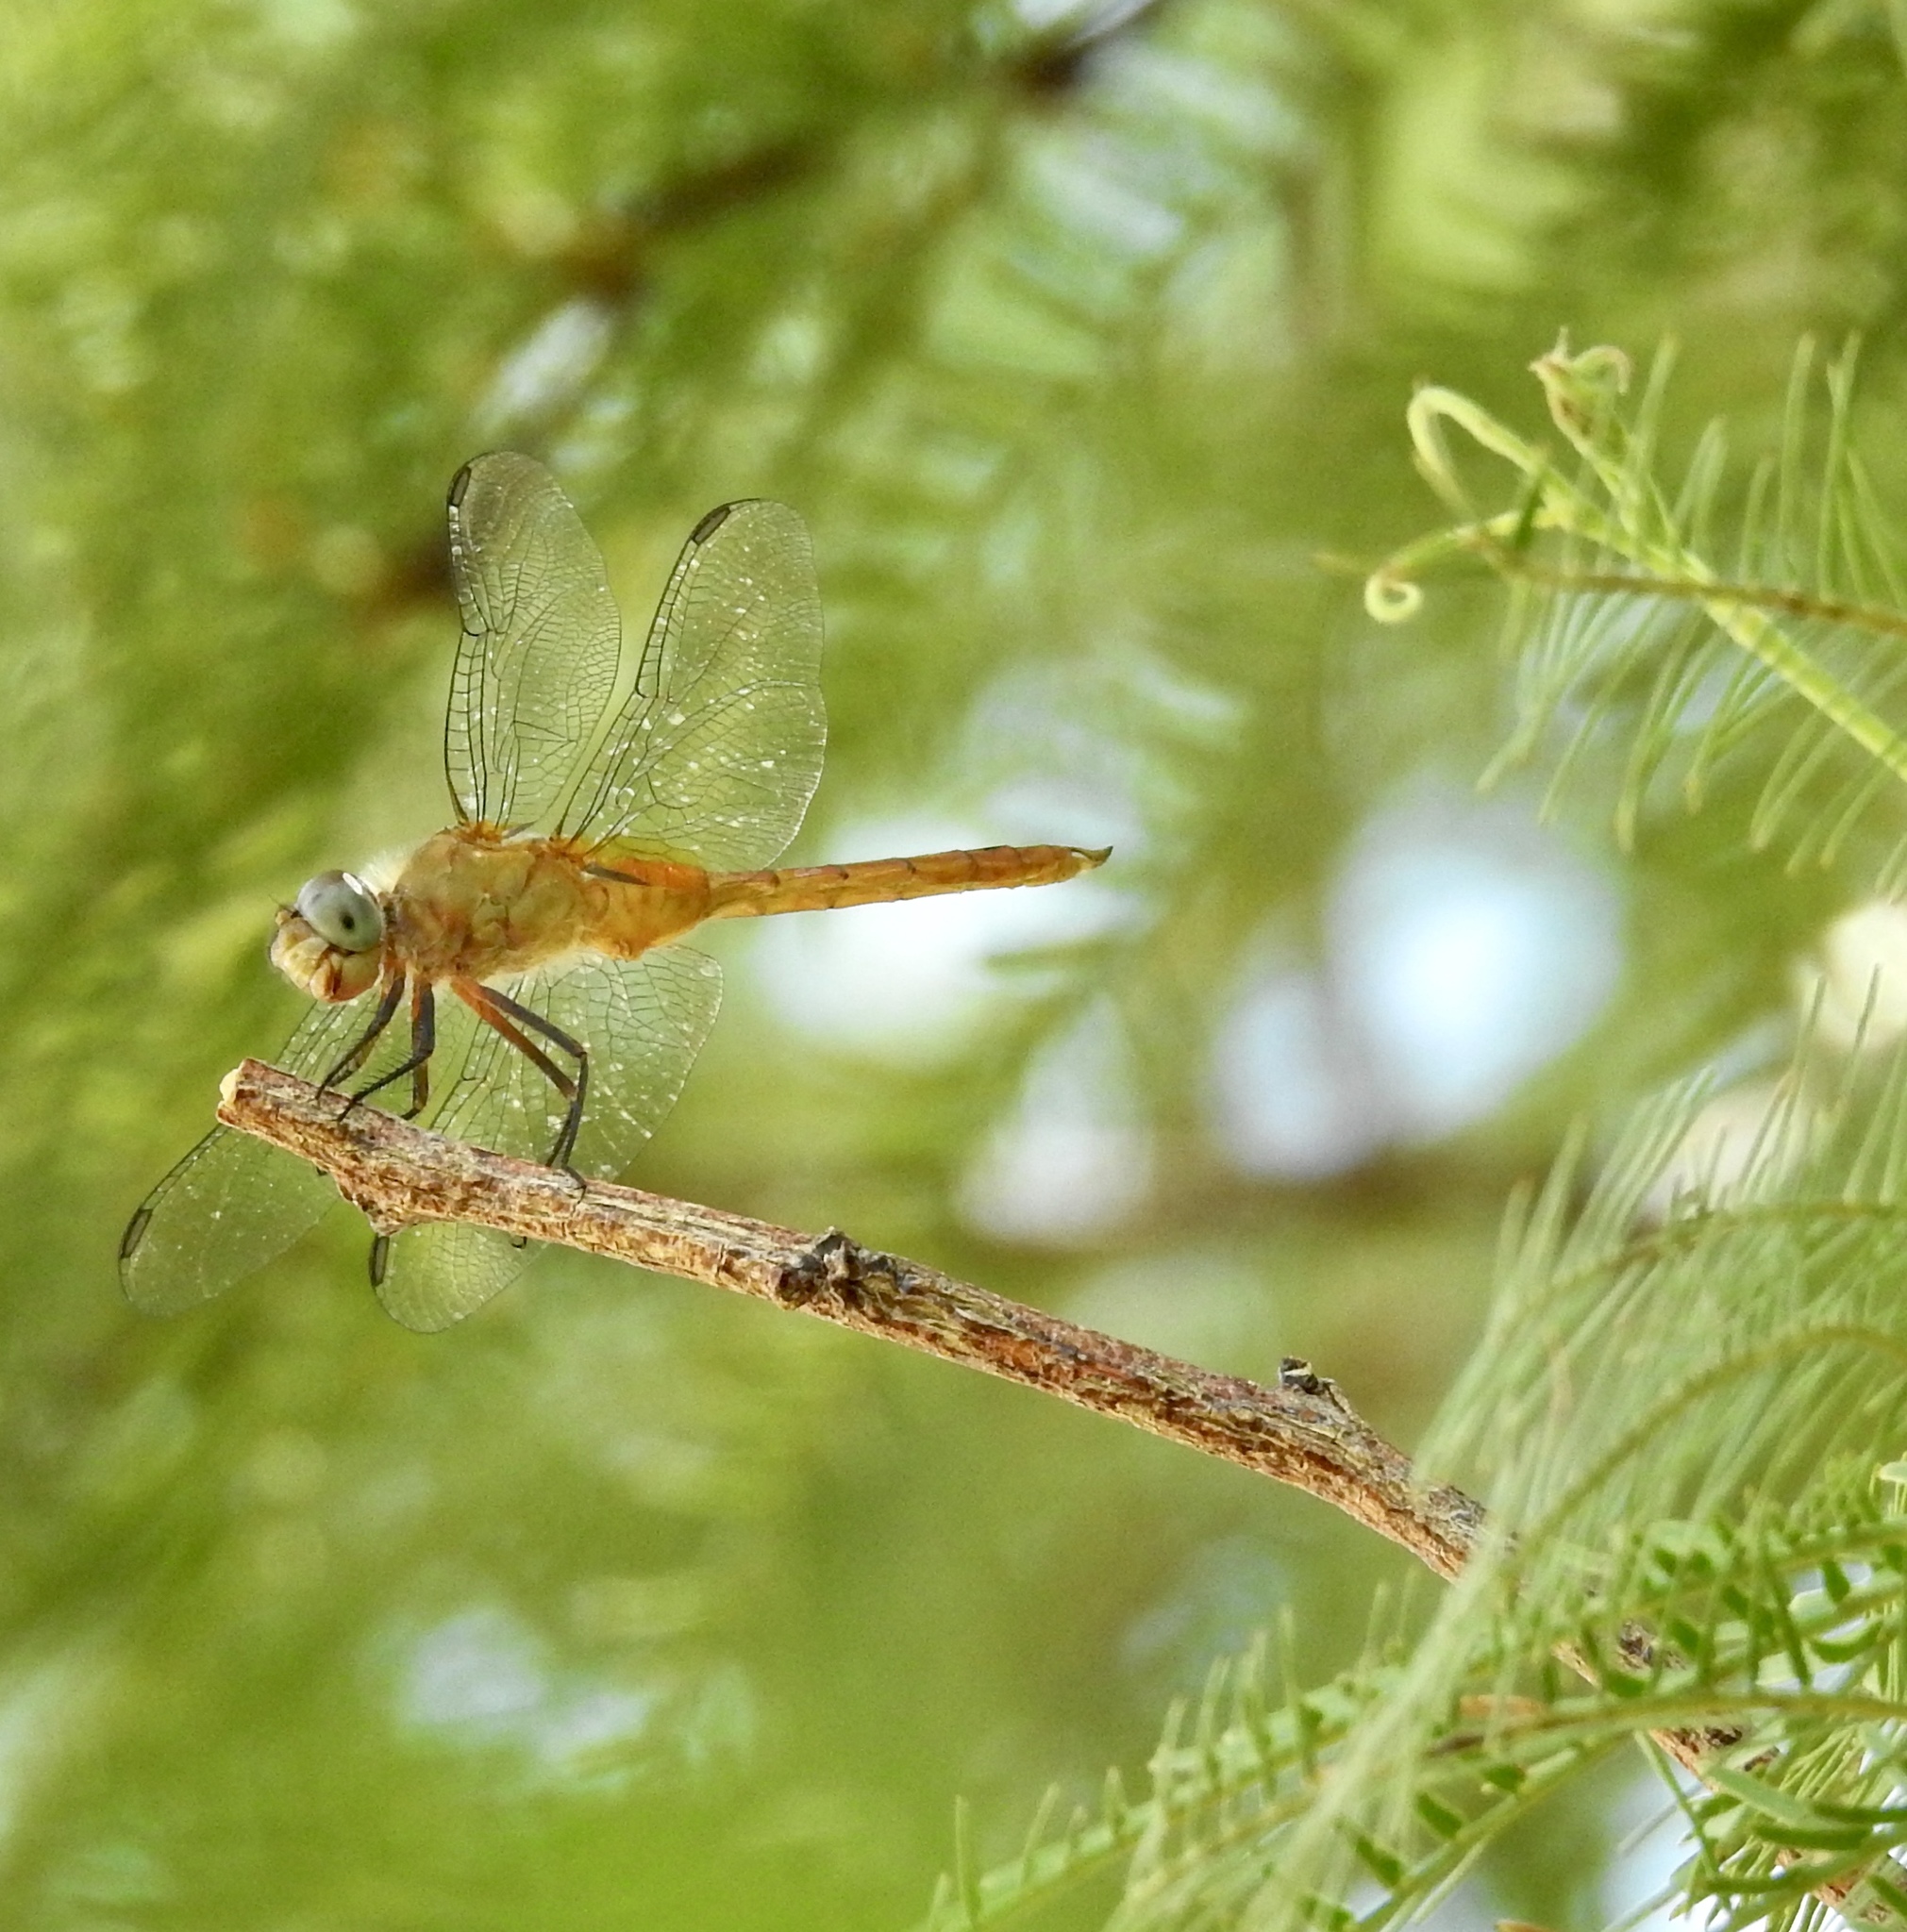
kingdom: Animalia
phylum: Arthropoda
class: Insecta
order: Odonata
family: Libellulidae
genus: Brachymesia
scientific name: Brachymesia furcata
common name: Red-taled pennant
